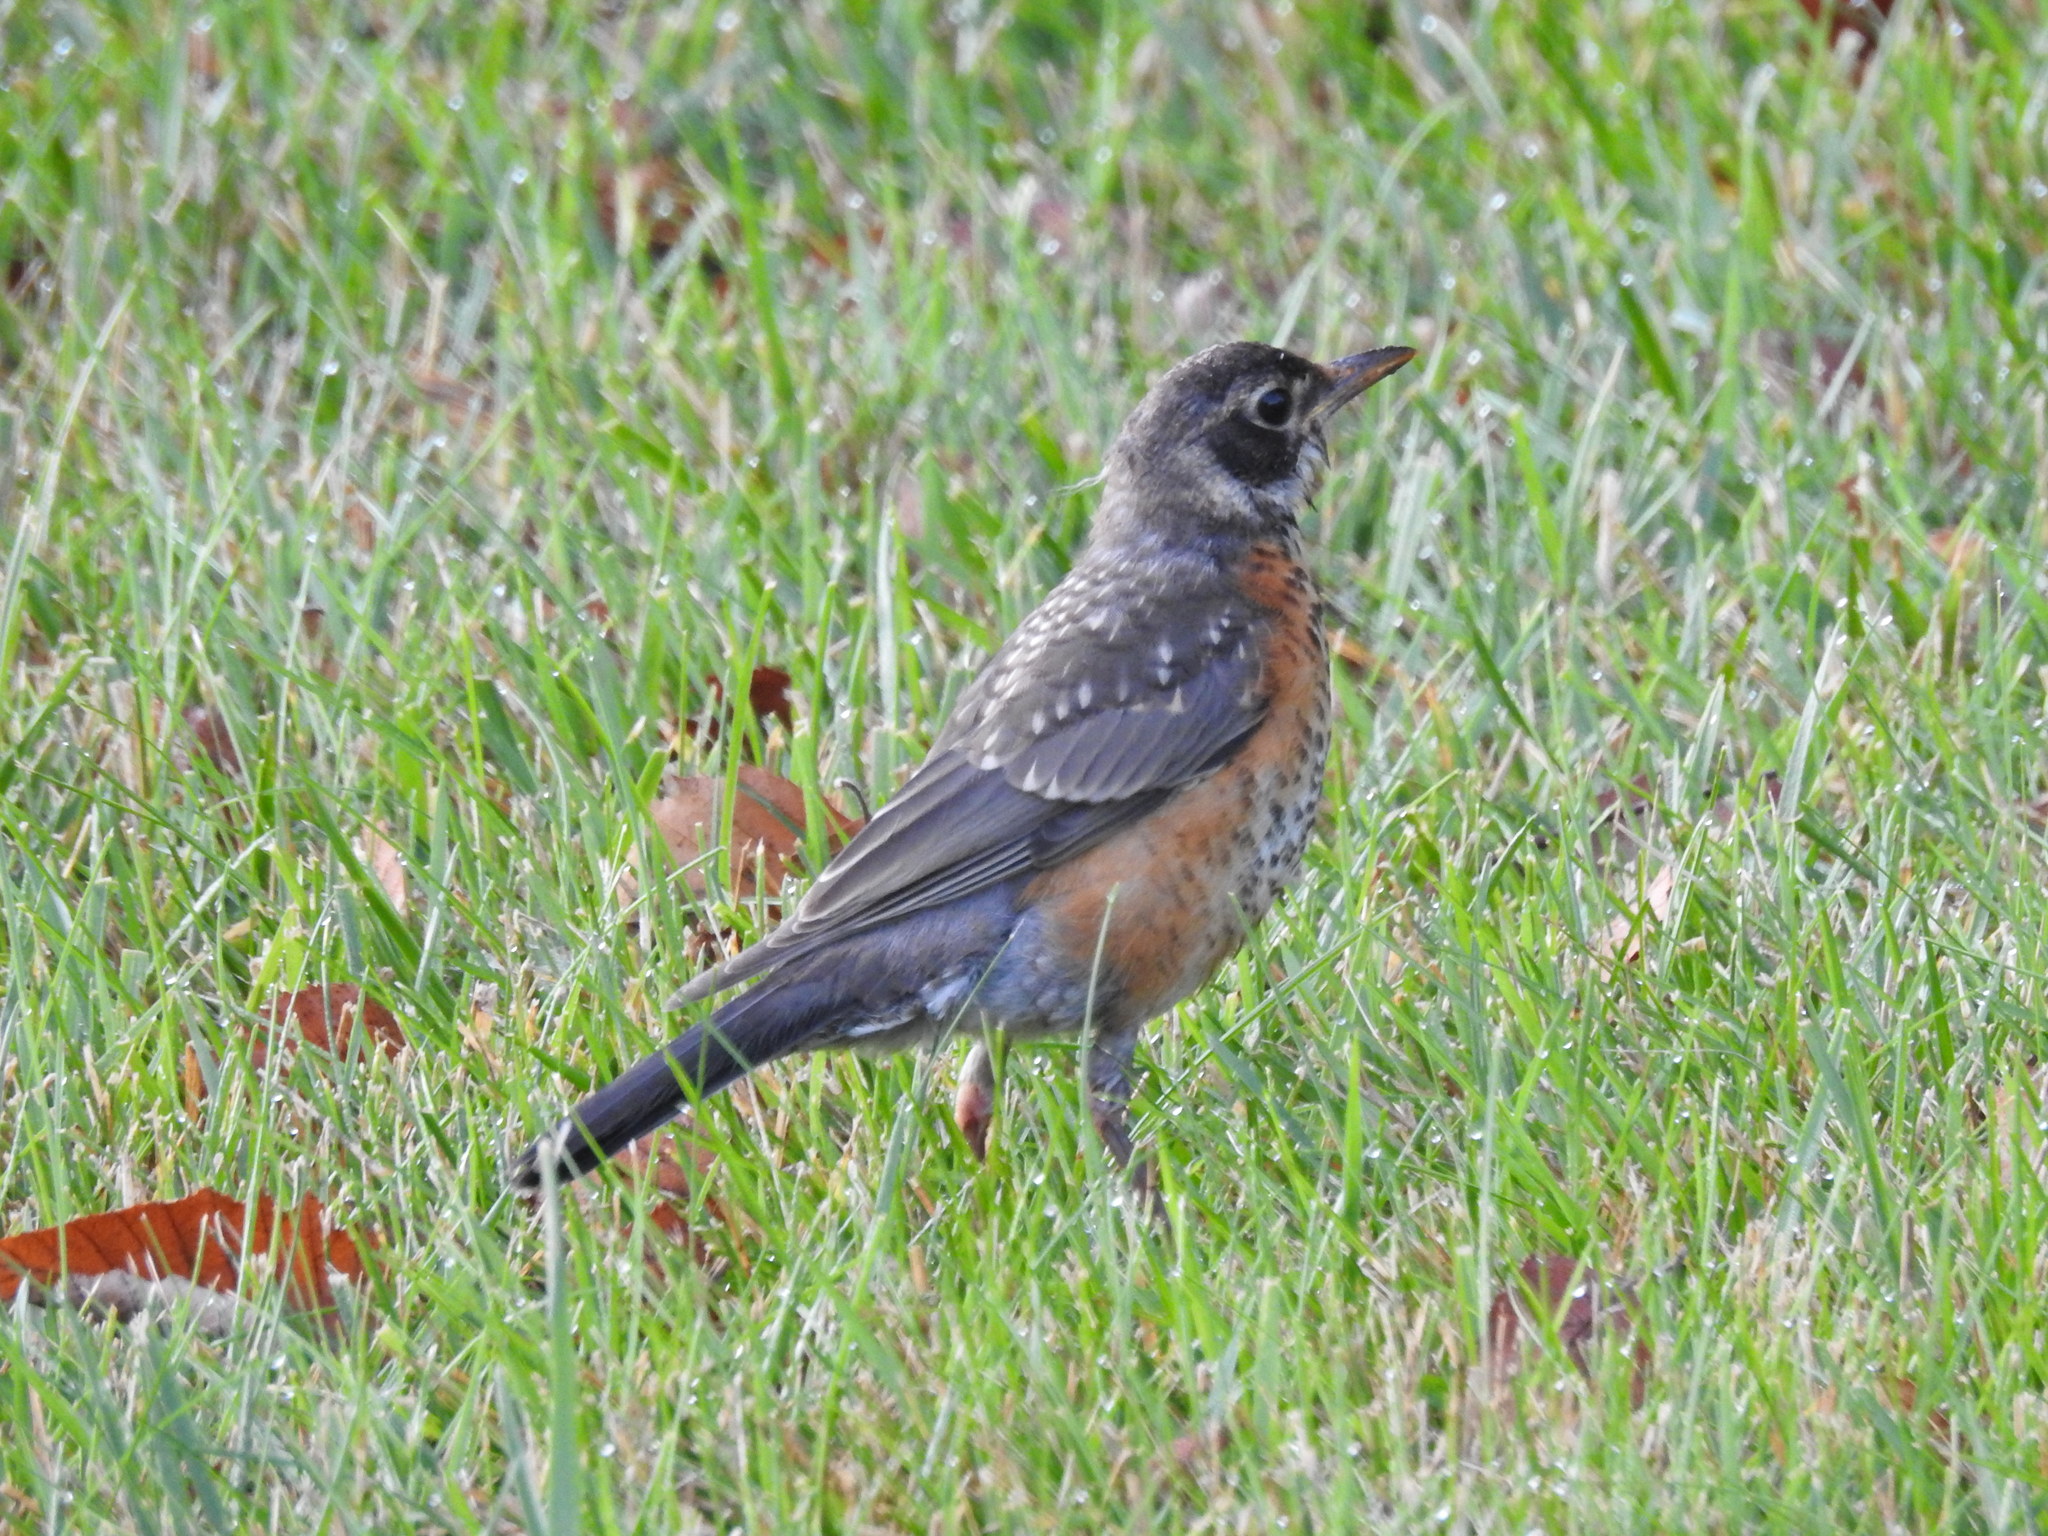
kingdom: Animalia
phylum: Chordata
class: Aves
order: Passeriformes
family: Turdidae
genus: Turdus
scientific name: Turdus migratorius
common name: American robin
